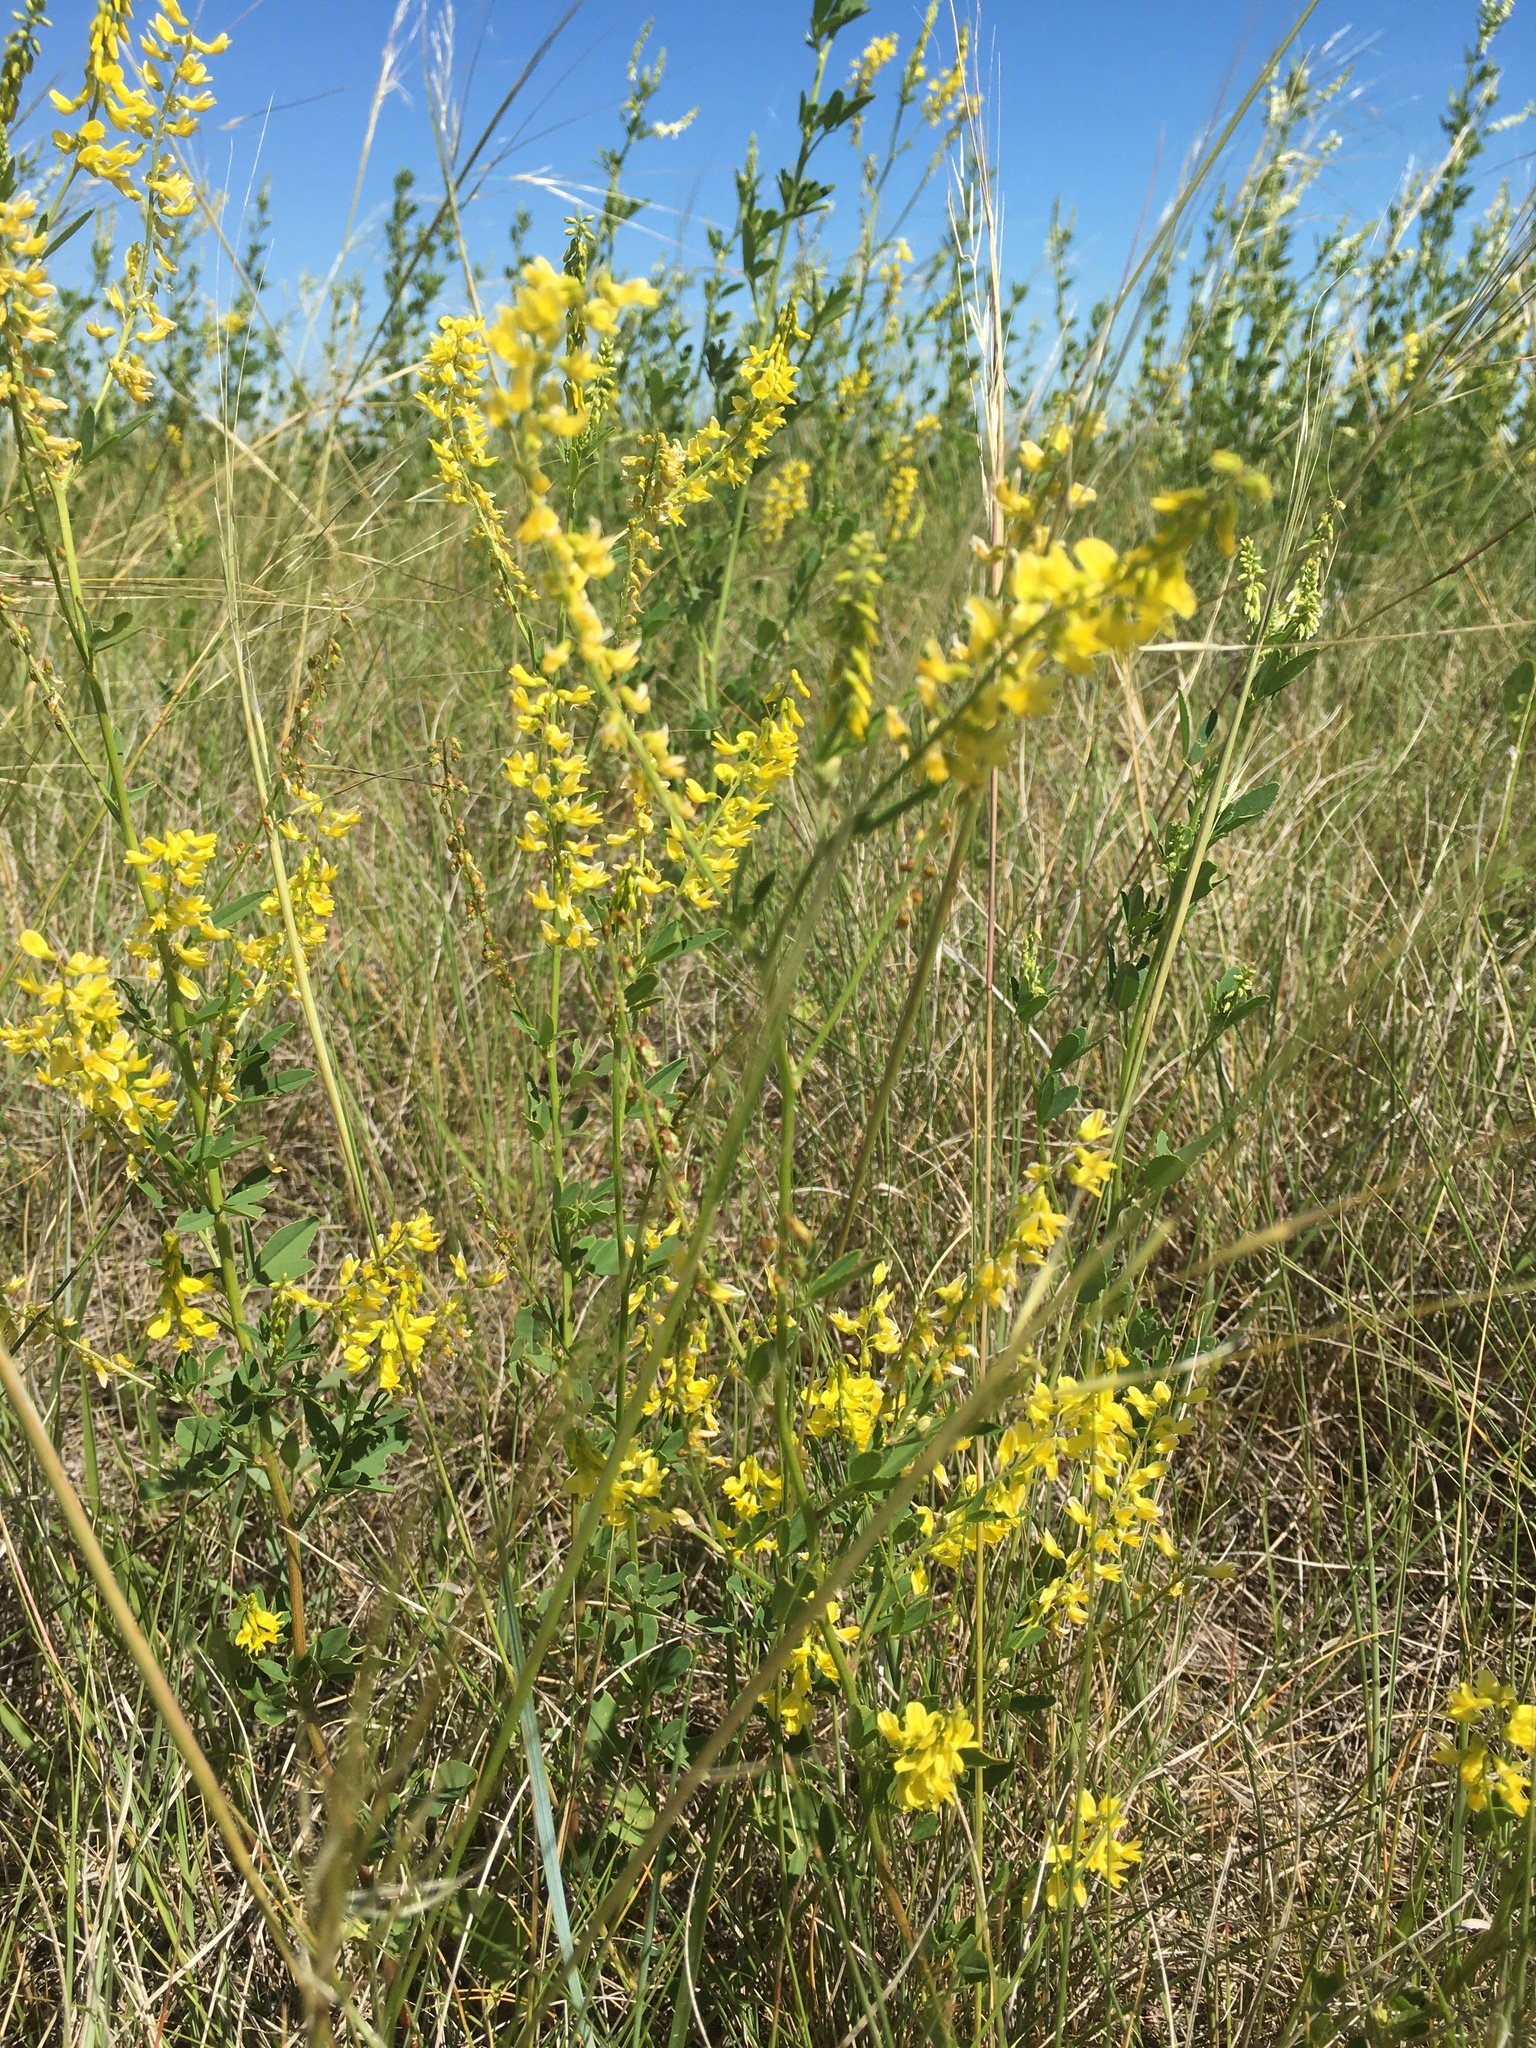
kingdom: Plantae
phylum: Tracheophyta
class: Magnoliopsida
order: Fabales
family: Fabaceae
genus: Melilotus
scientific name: Melilotus officinalis
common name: Sweetclover
